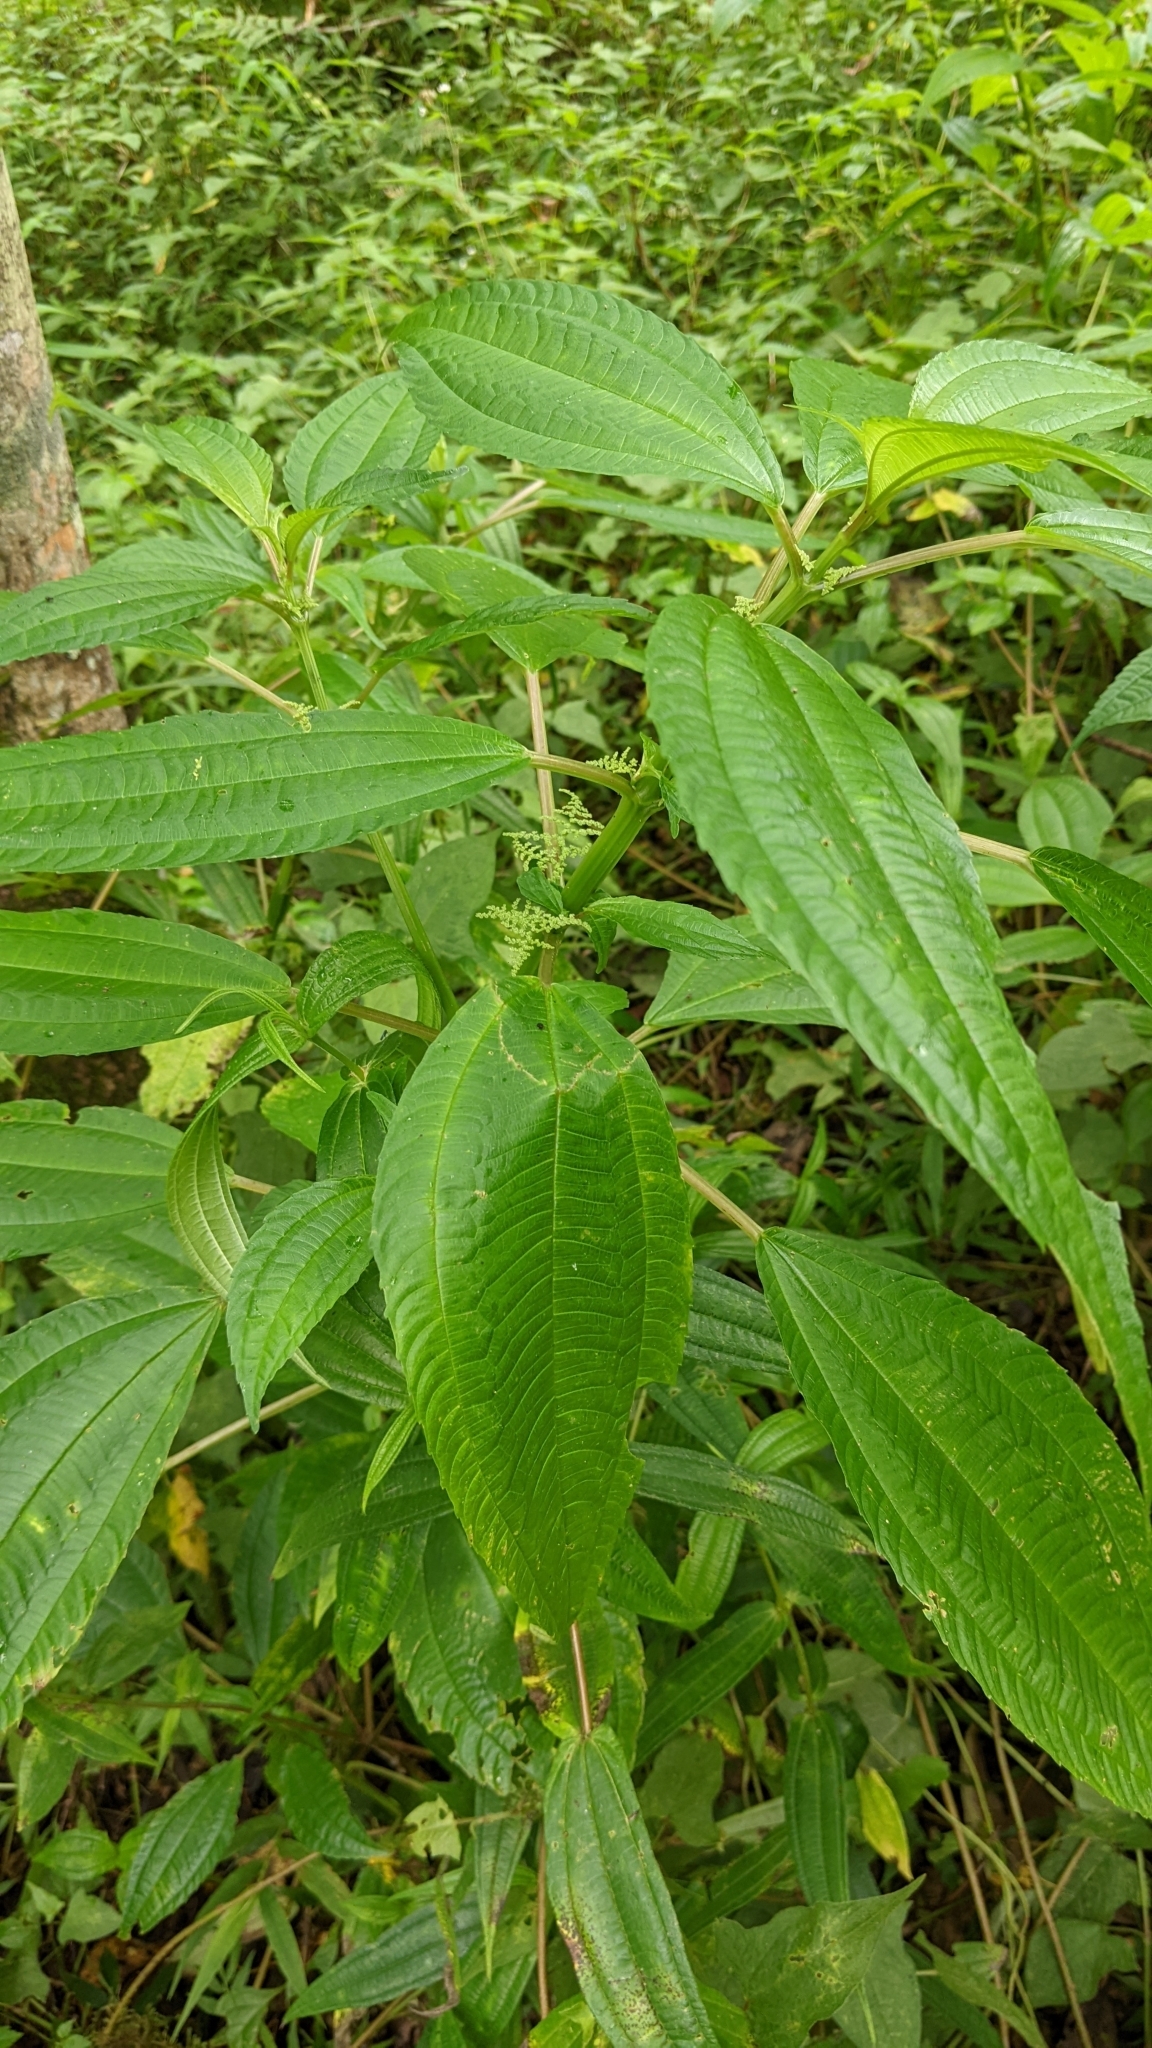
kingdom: Plantae
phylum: Tracheophyta
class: Magnoliopsida
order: Rosales
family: Urticaceae
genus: Pilea
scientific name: Pilea melastomoides
